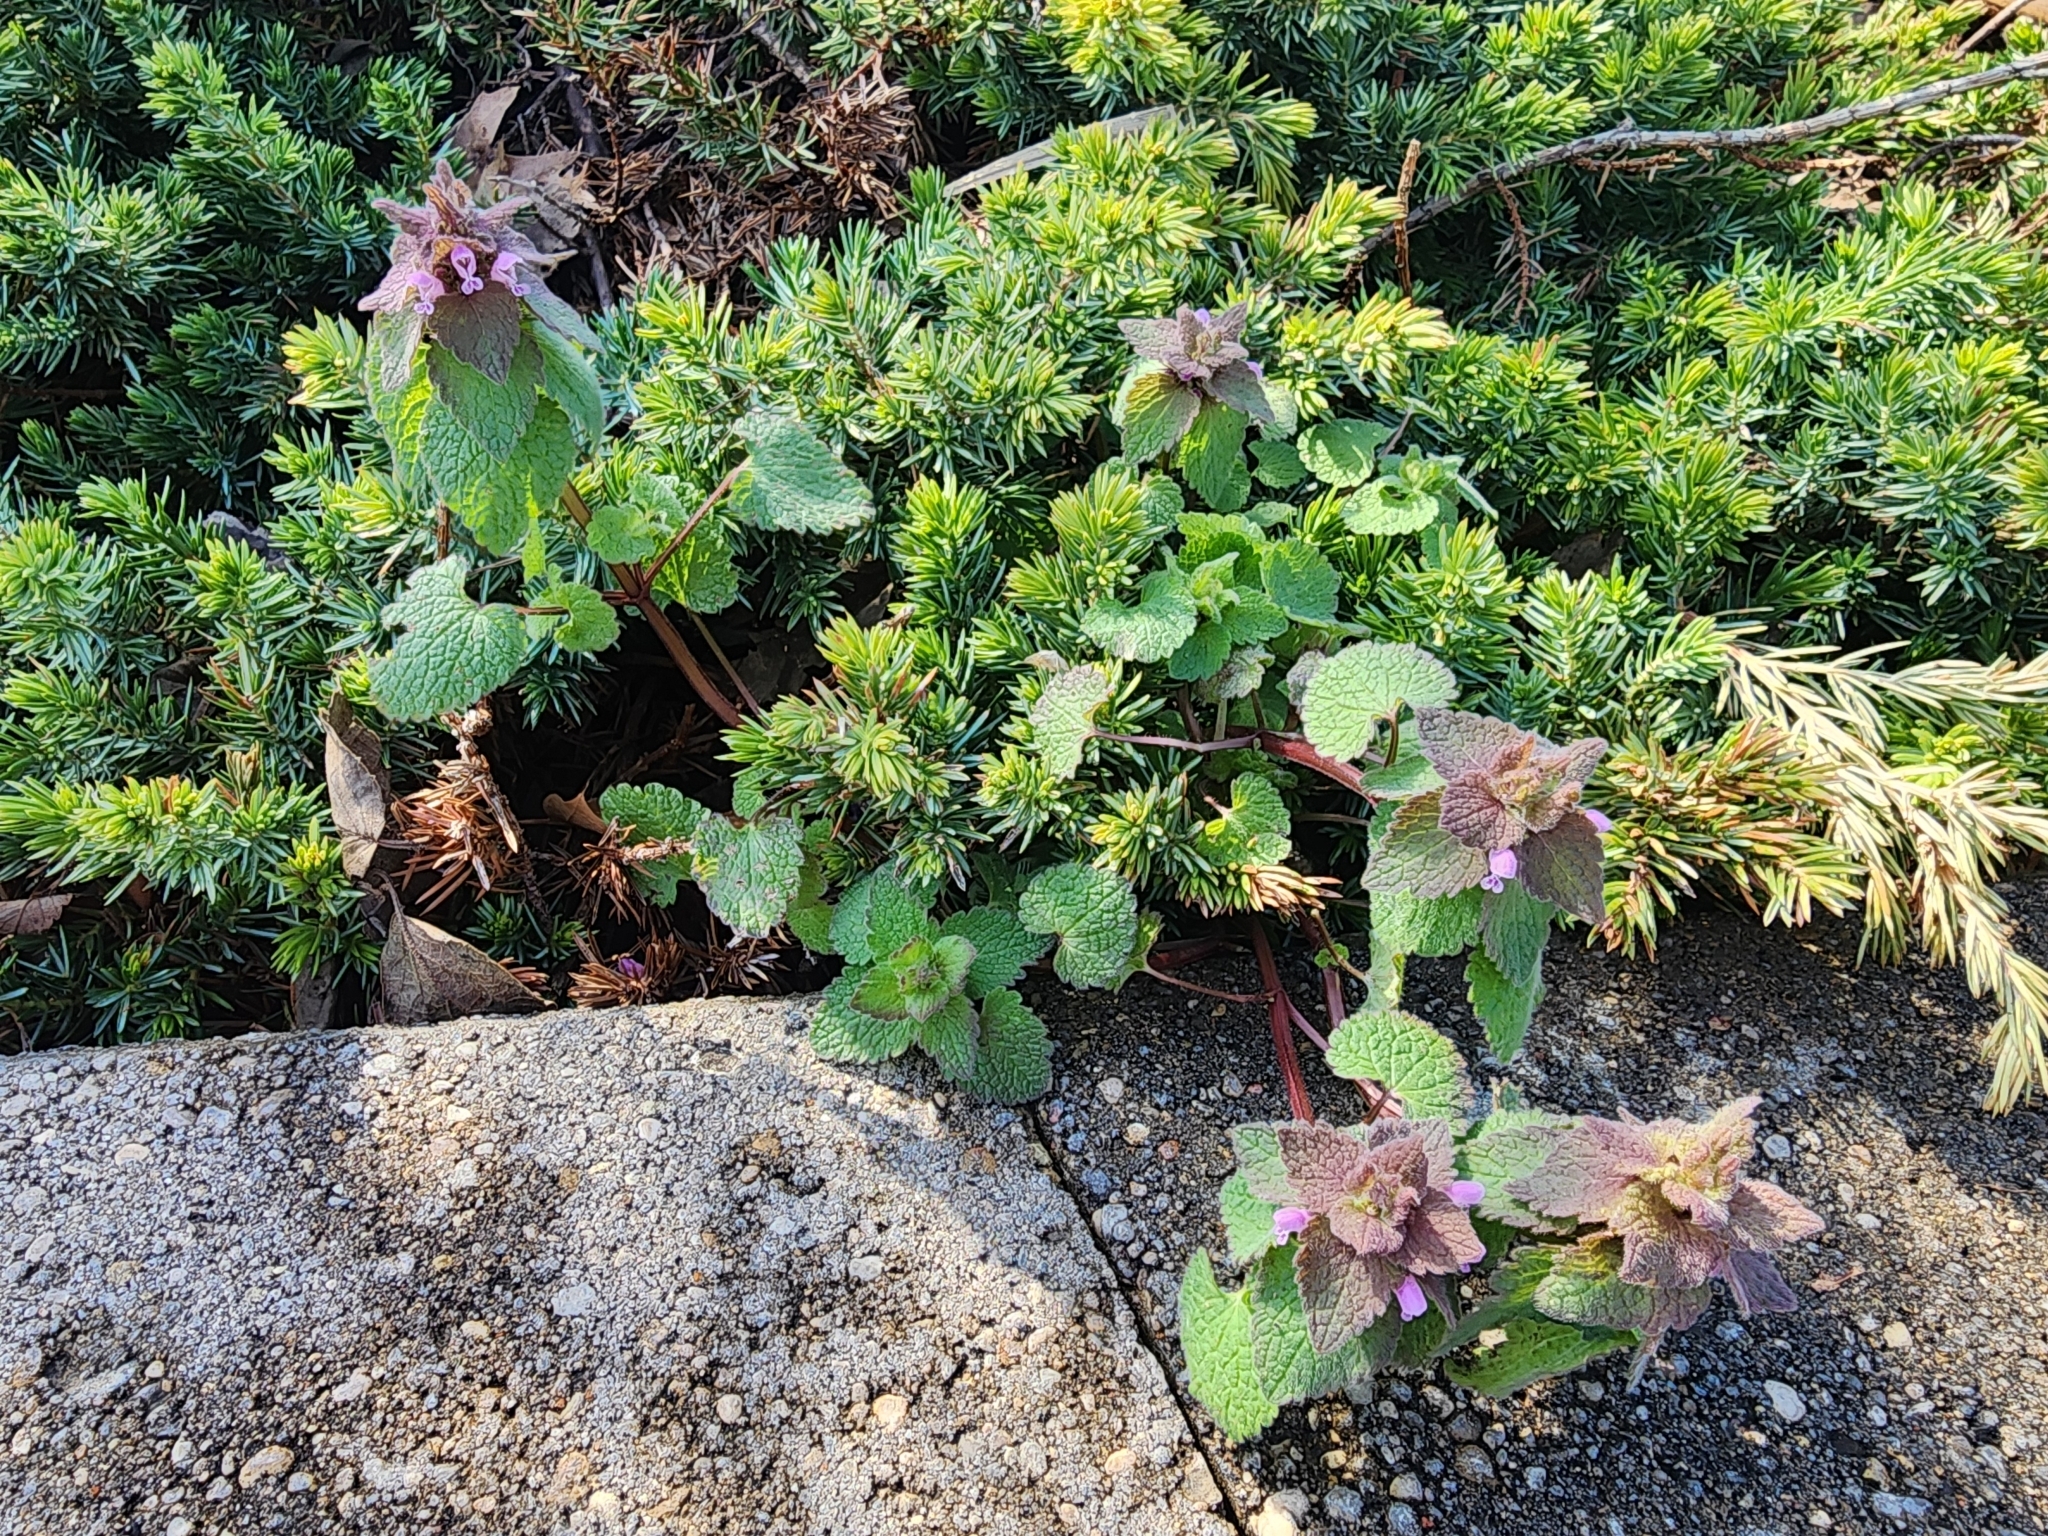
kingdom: Plantae
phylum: Tracheophyta
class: Magnoliopsida
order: Lamiales
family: Lamiaceae
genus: Lamium
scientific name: Lamium purpureum
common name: Red dead-nettle
